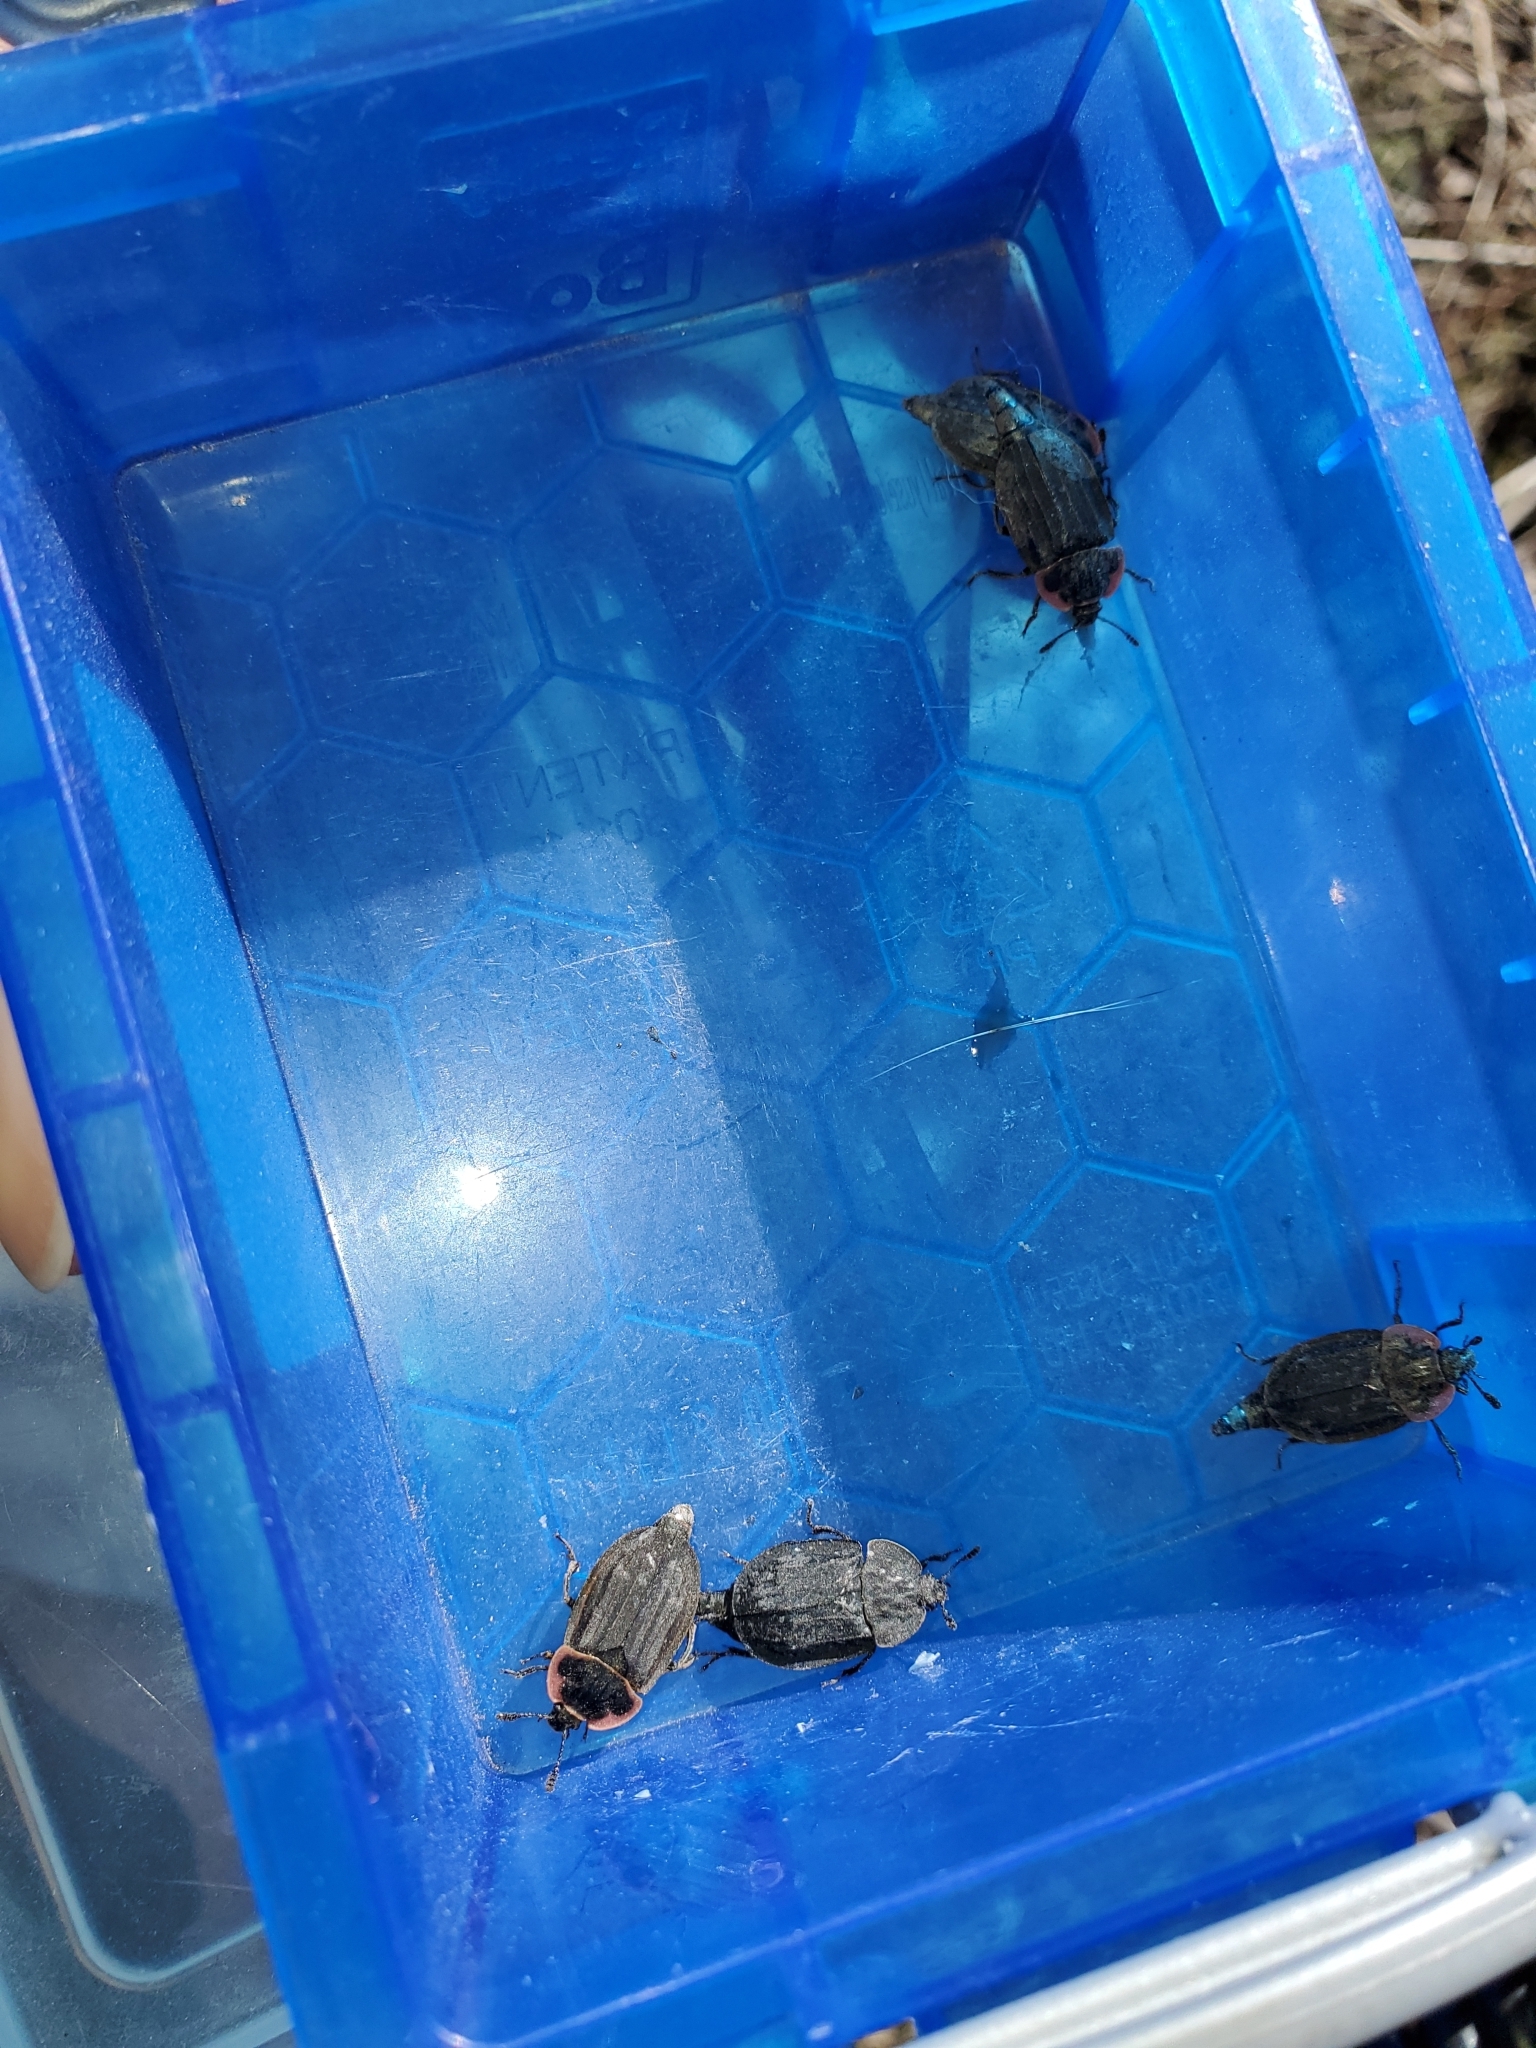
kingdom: Animalia
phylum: Arthropoda
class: Insecta
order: Coleoptera
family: Staphylinidae
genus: Oiceoptoma
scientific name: Oiceoptoma noveboracense
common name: Margined carrion beetle
